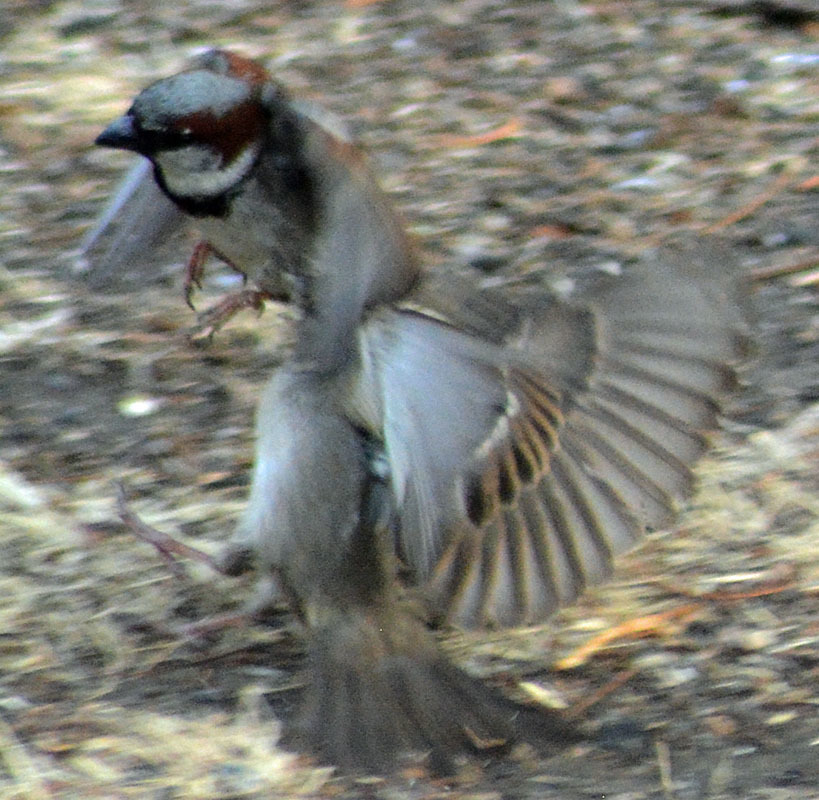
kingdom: Animalia
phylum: Chordata
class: Aves
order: Passeriformes
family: Passeridae
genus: Passer
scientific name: Passer domesticus
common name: House sparrow
